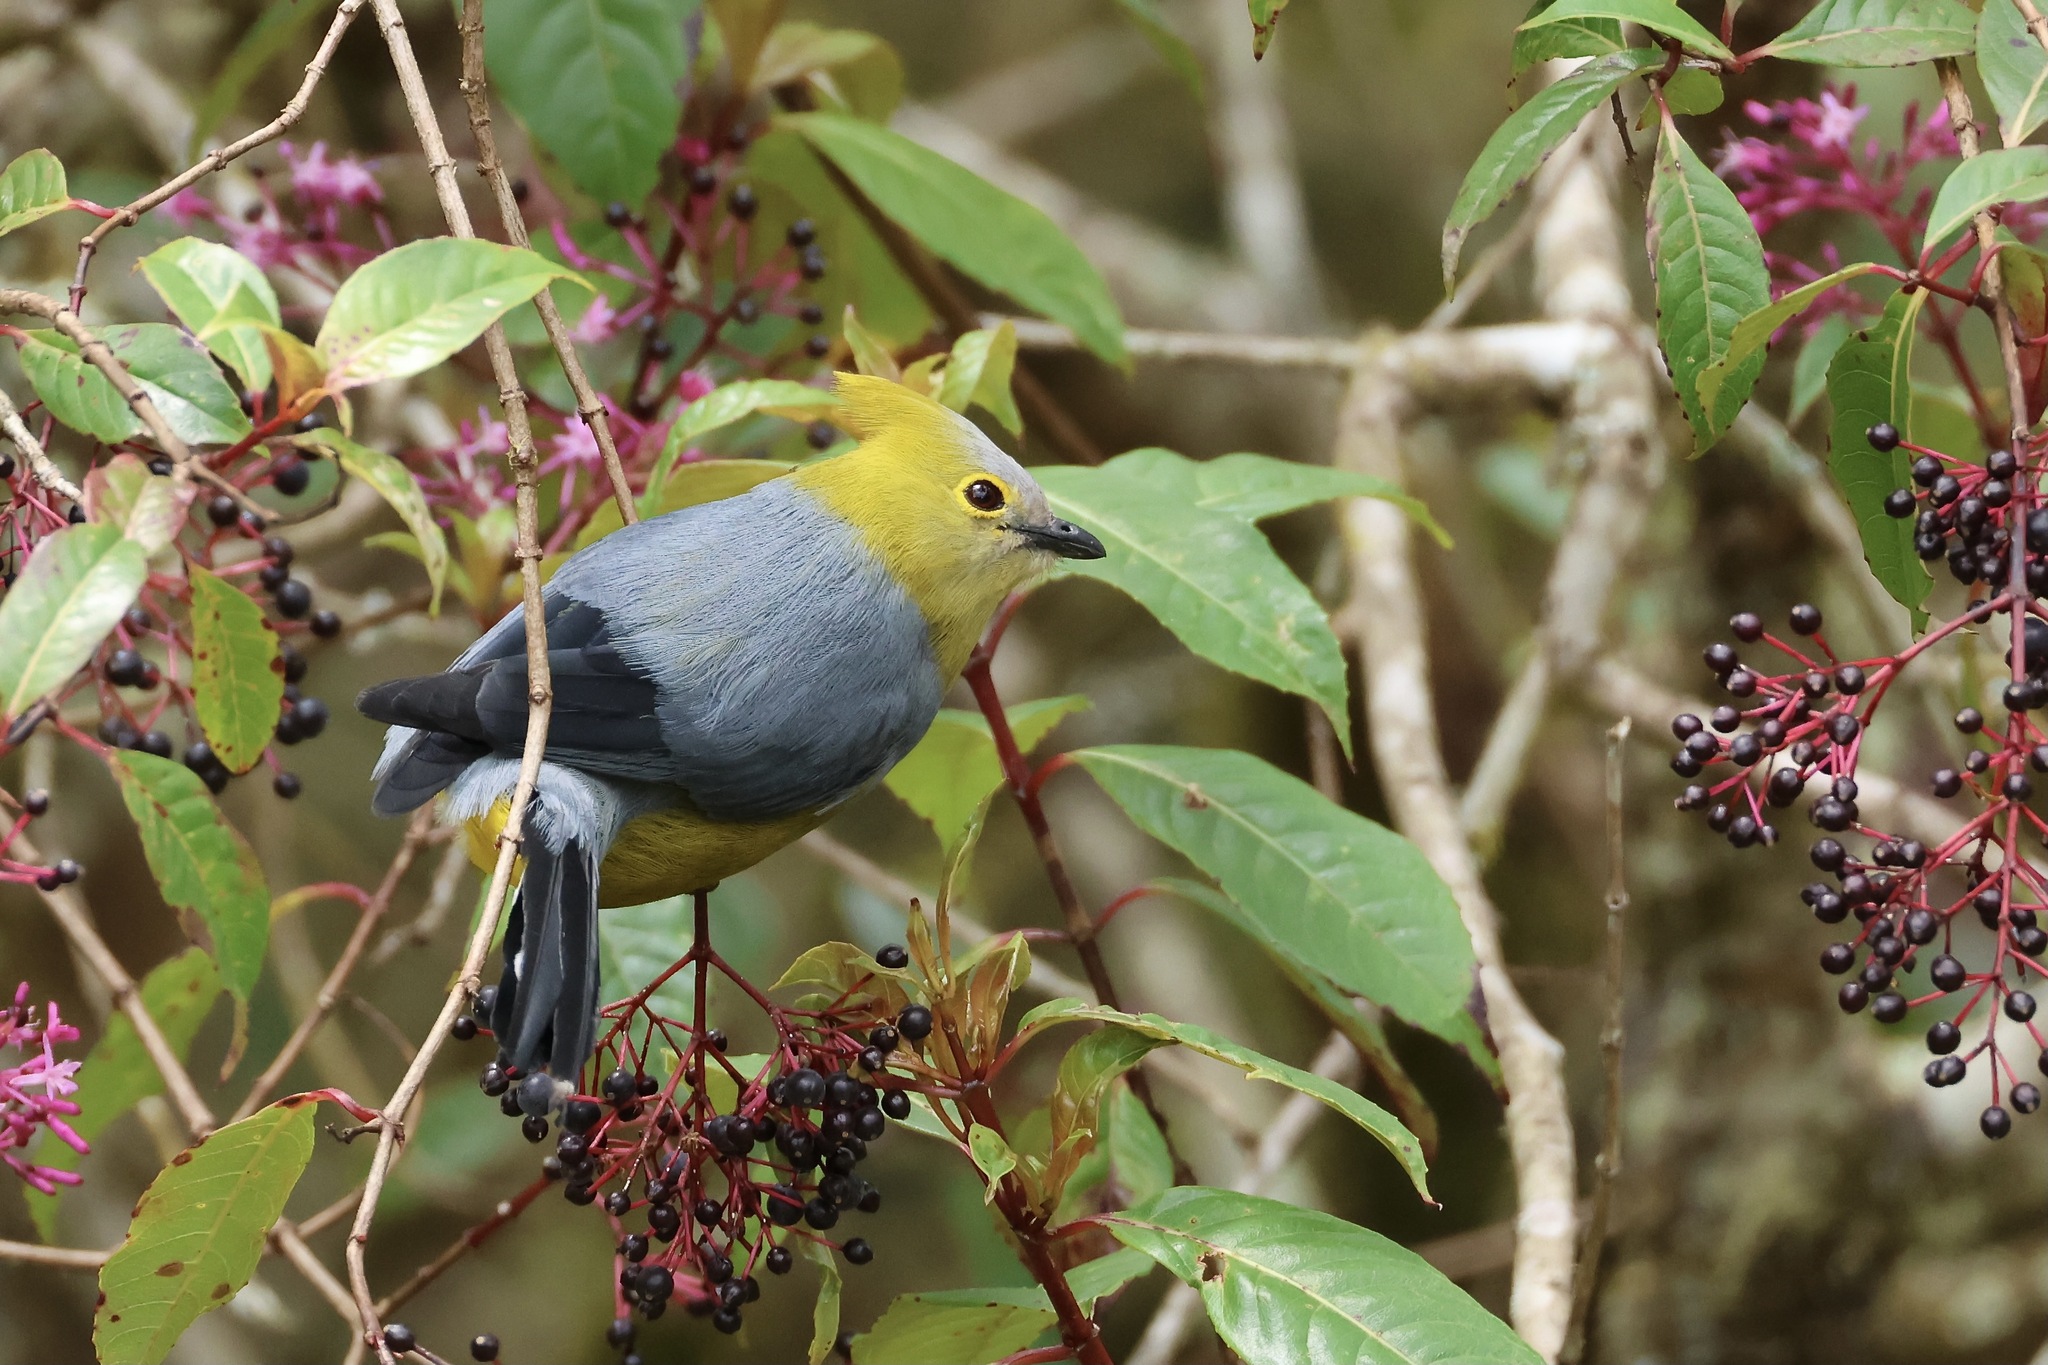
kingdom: Animalia
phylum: Chordata
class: Aves
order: Passeriformes
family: Ptilogonatidae
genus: Ptilogonys
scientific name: Ptilogonys caudatus
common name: Long-tailed silky-flycatcher
